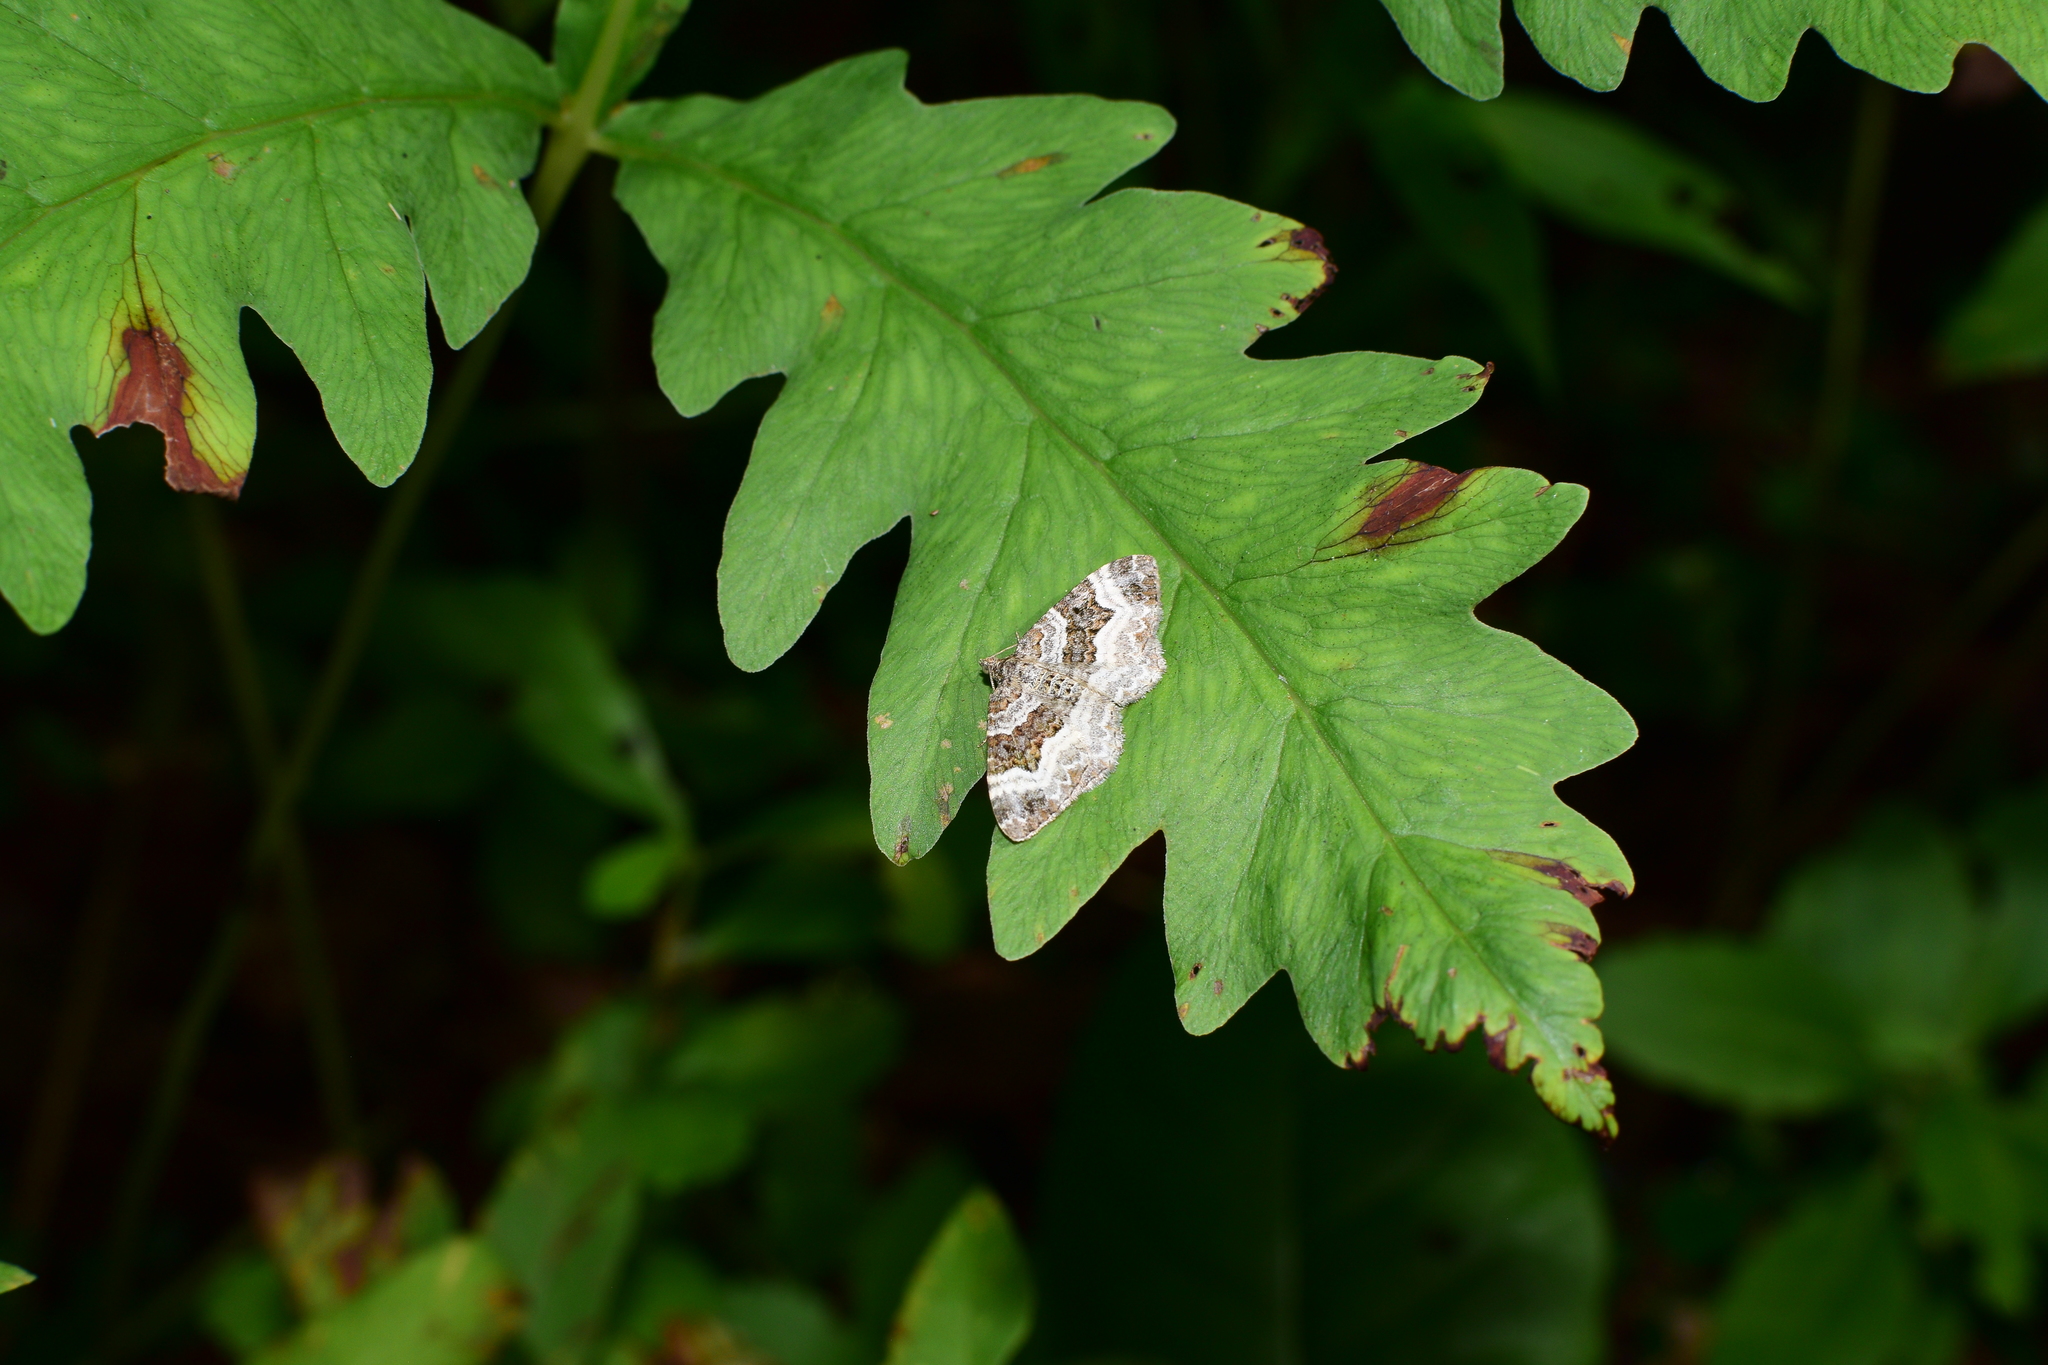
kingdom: Animalia
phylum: Arthropoda
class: Insecta
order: Lepidoptera
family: Geometridae
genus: Epirrhoe
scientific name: Epirrhoe alternata
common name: Common carpet
